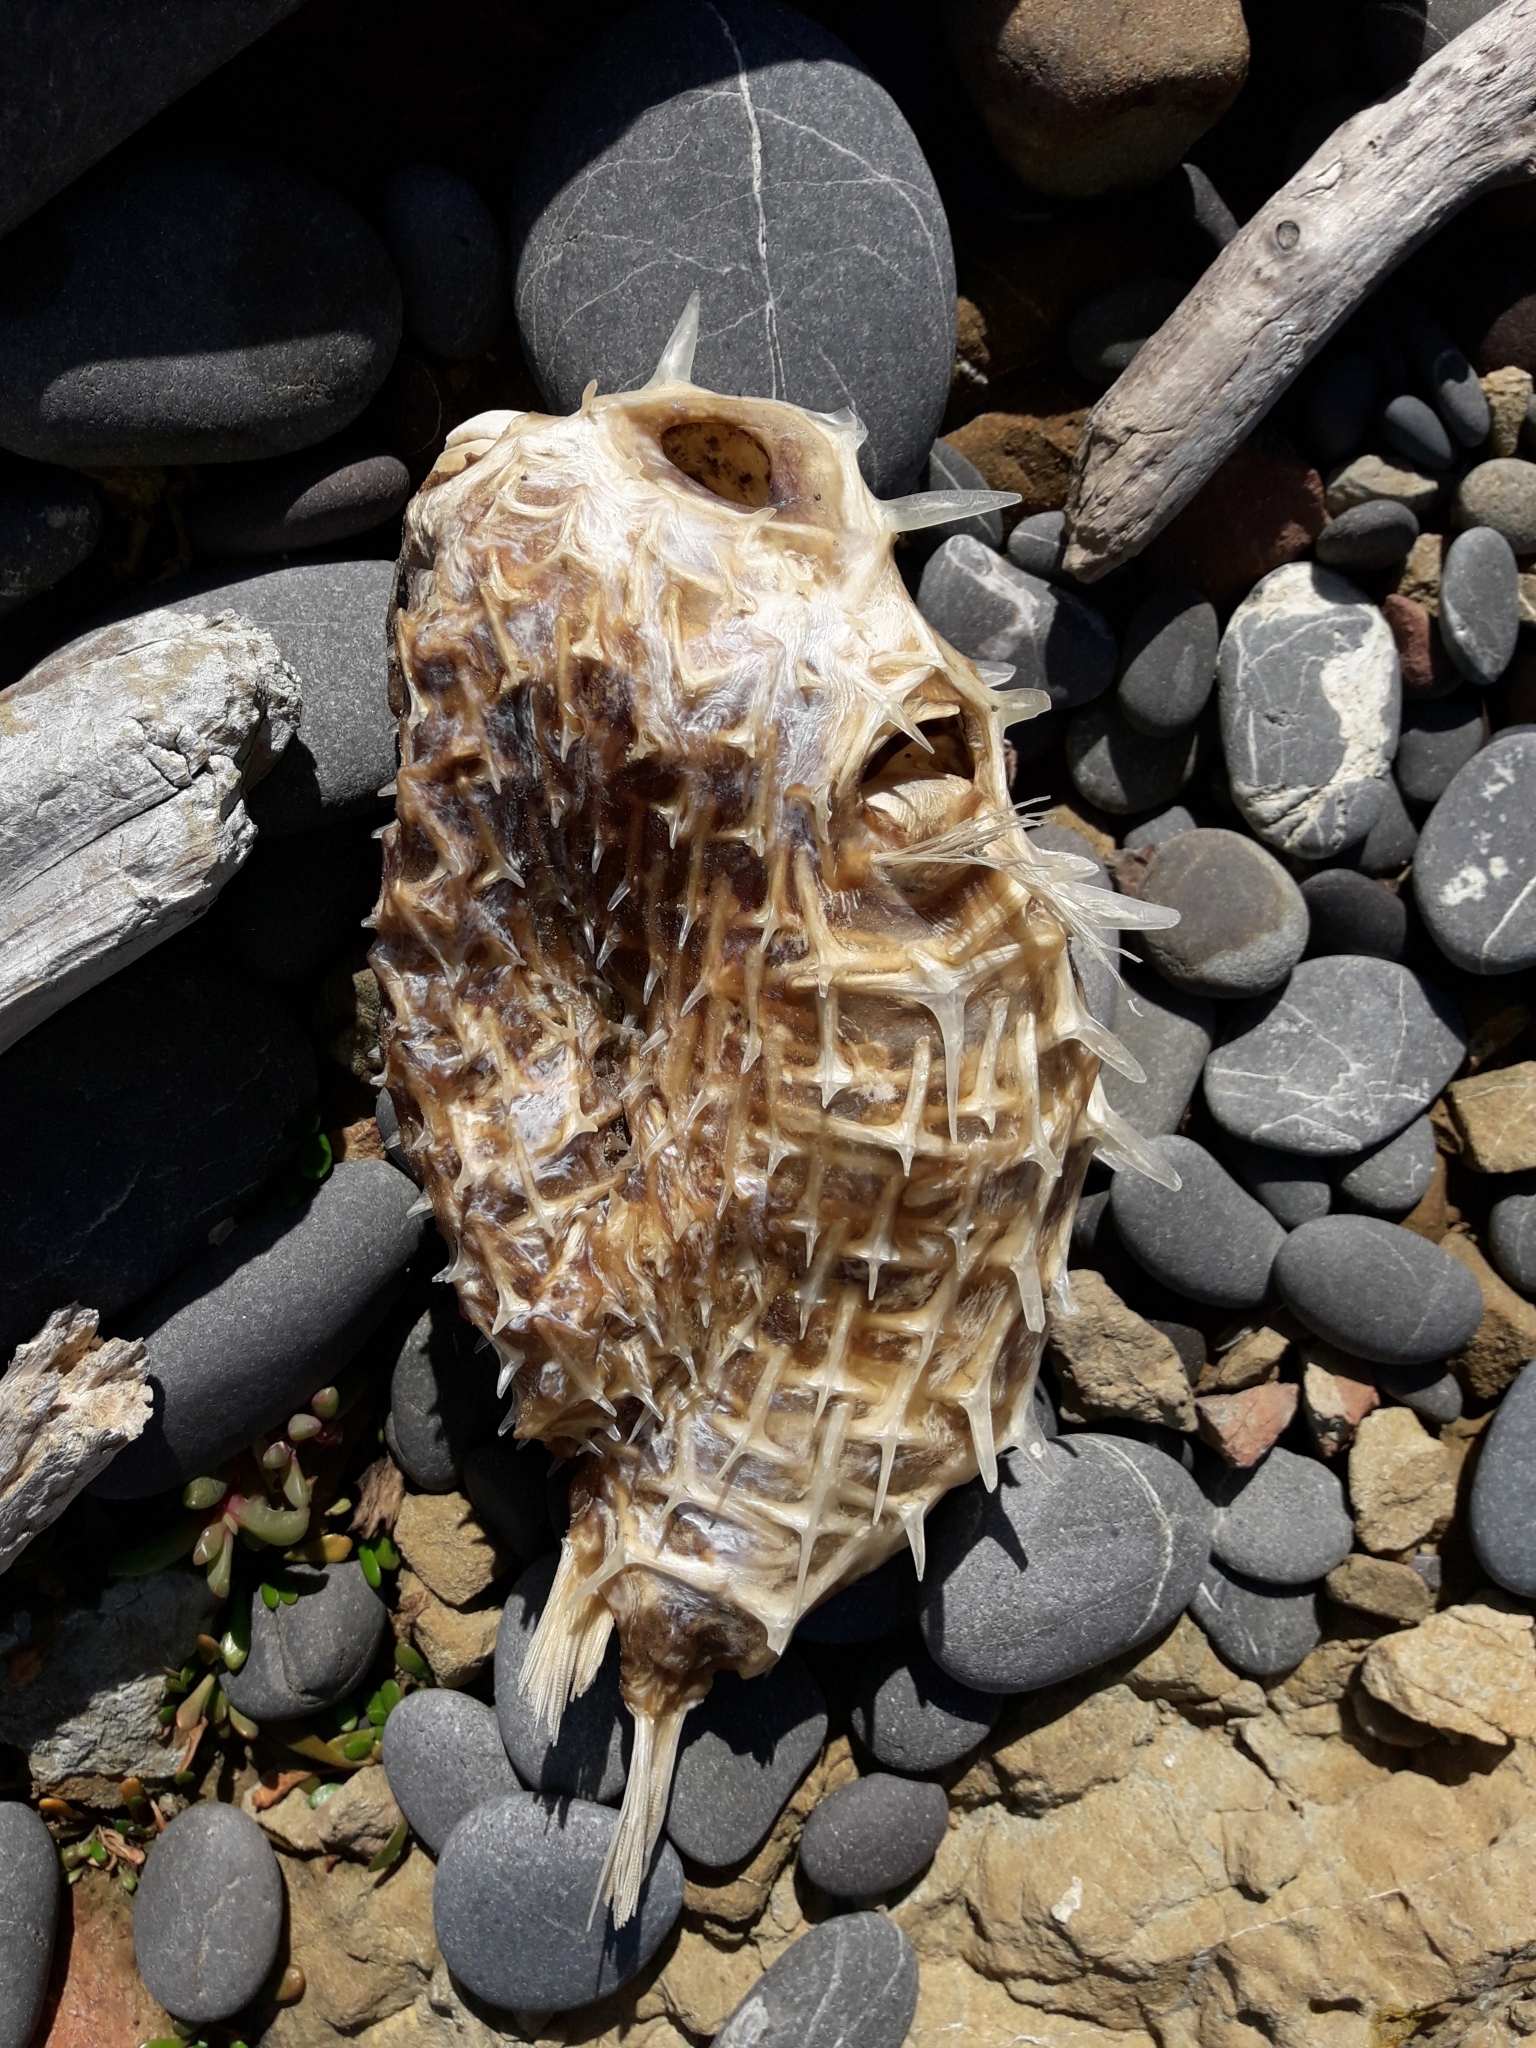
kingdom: Animalia
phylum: Chordata
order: Tetraodontiformes
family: Diodontidae
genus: Allomycterus
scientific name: Allomycterus pilatus
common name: No common name
